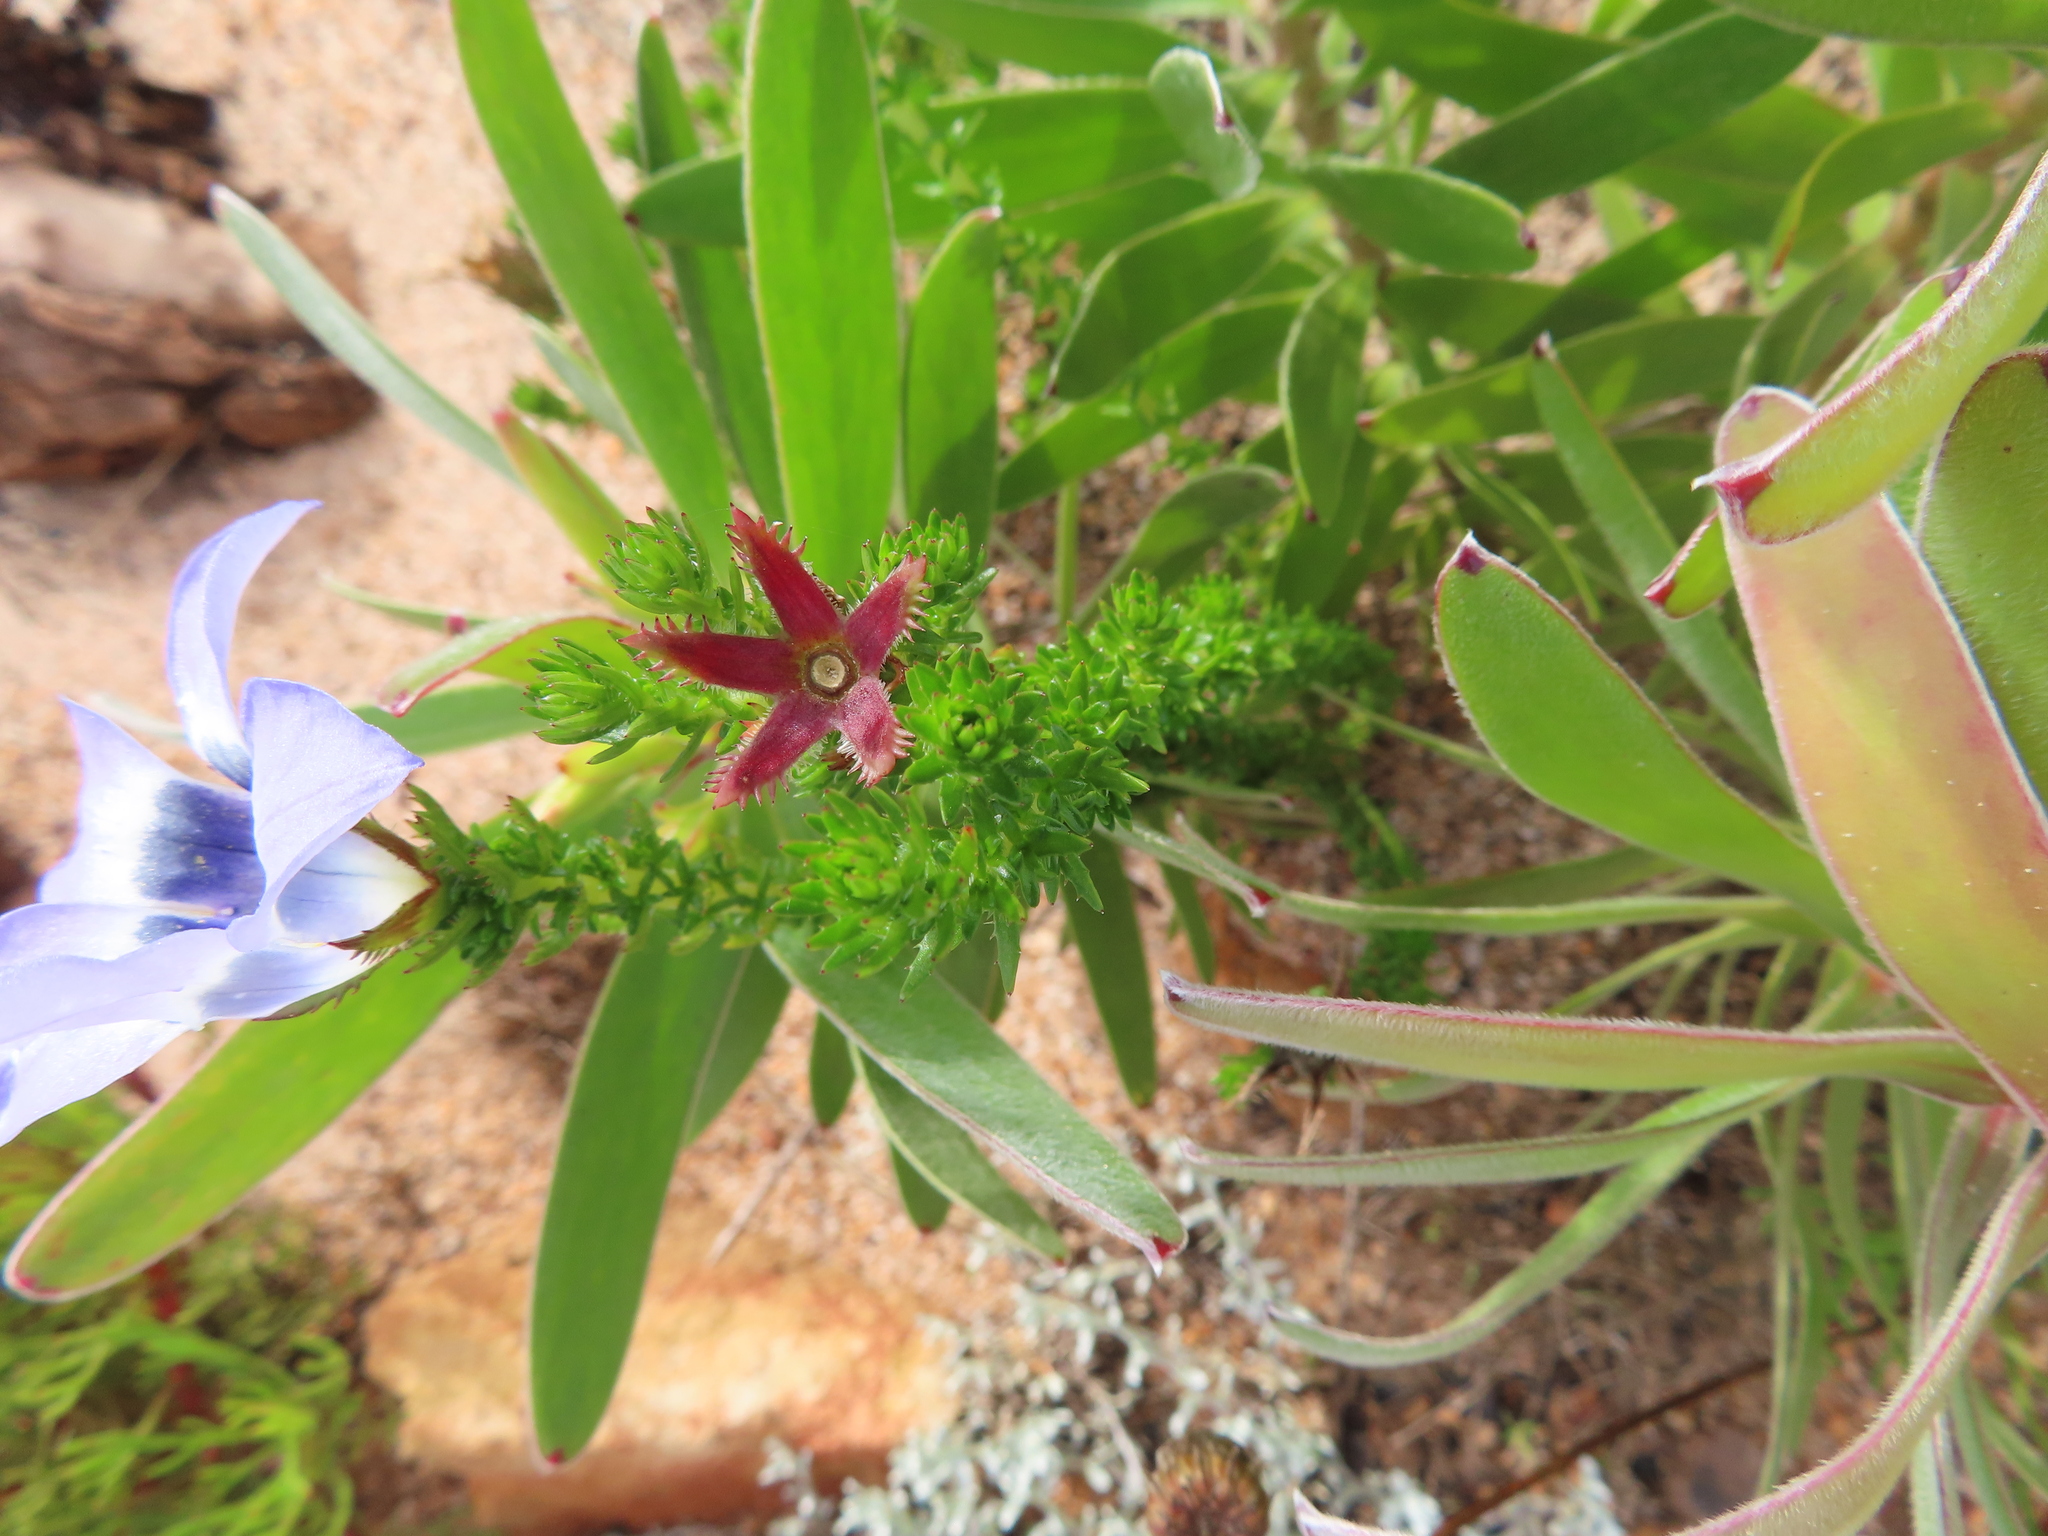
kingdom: Plantae
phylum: Tracheophyta
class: Magnoliopsida
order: Asterales
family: Campanulaceae
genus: Roella
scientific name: Roella ciliata
